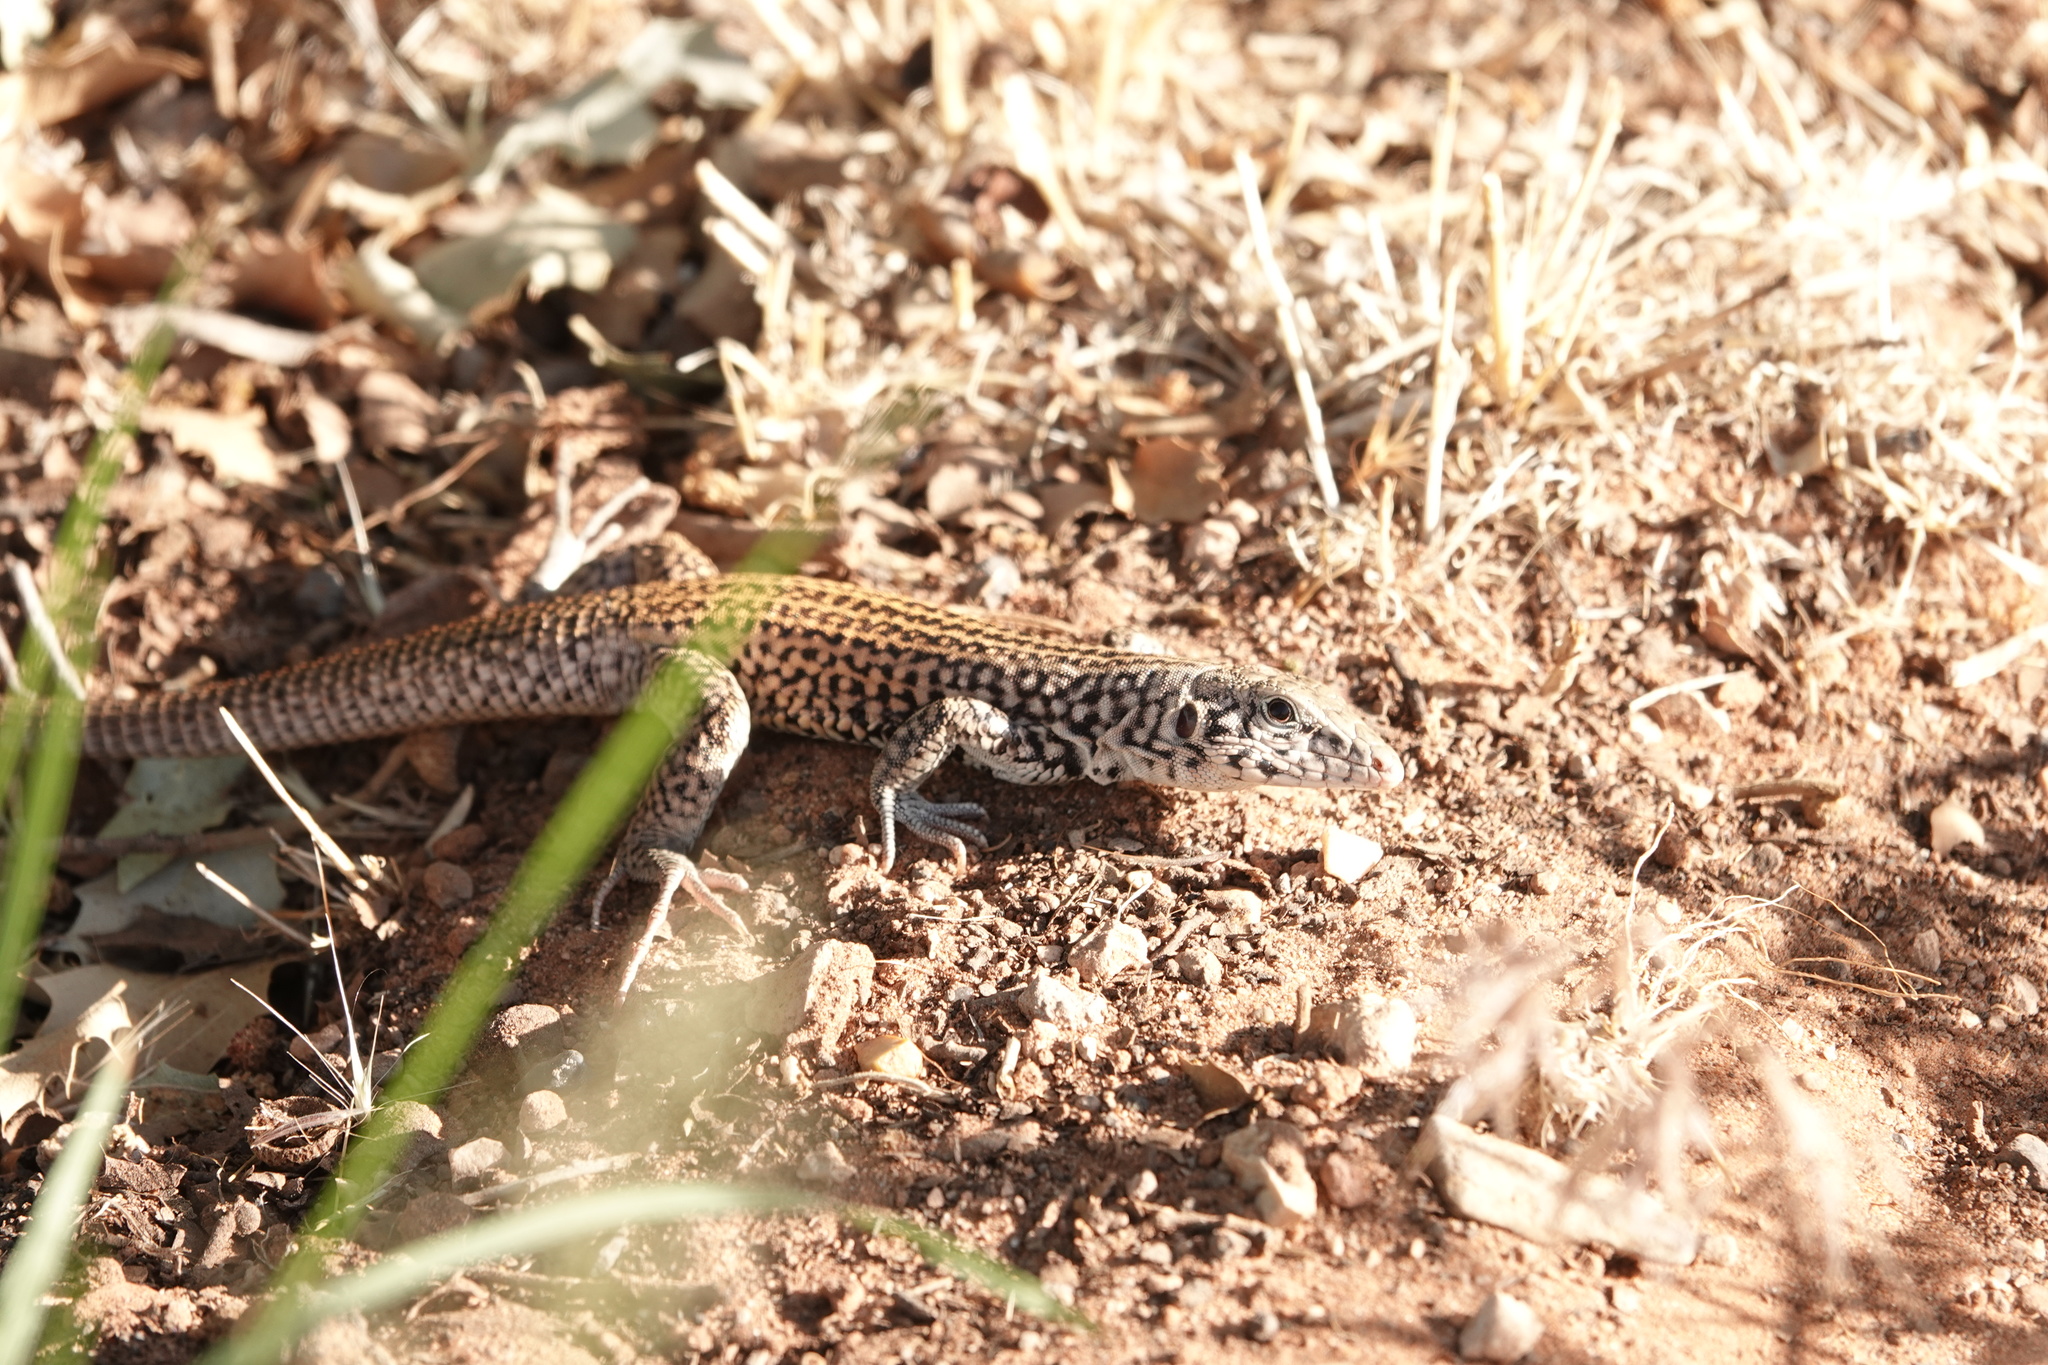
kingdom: Animalia
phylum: Chordata
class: Squamata
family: Teiidae
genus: Aspidoscelis
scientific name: Aspidoscelis tigris
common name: Tiger whiptail
